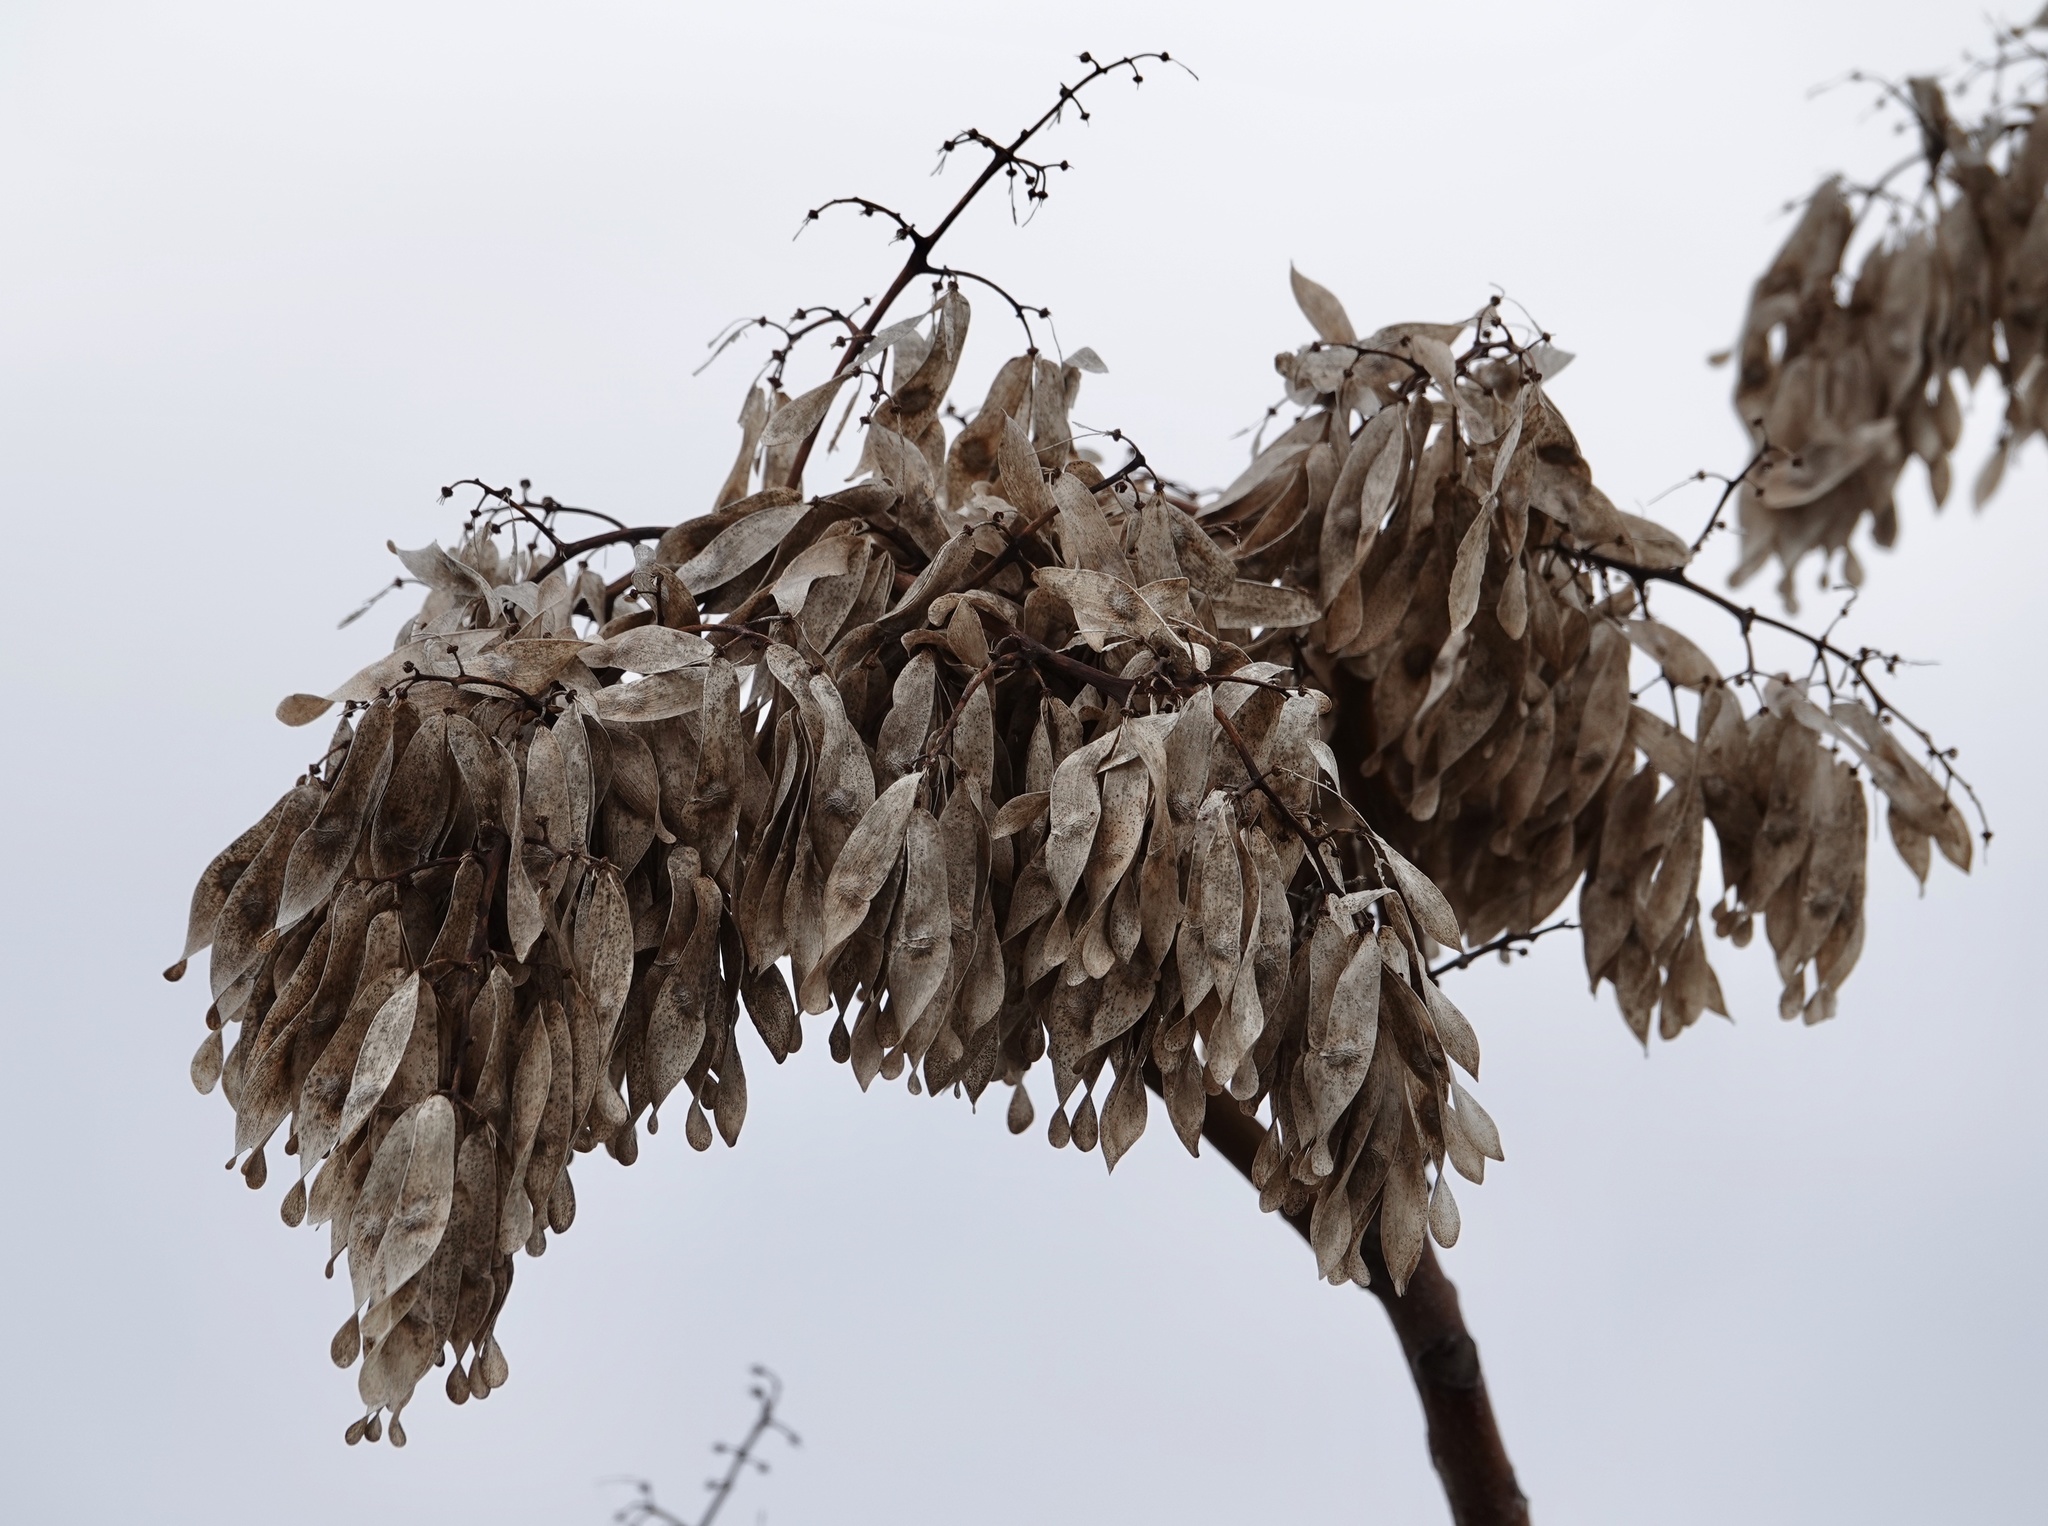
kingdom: Plantae
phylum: Tracheophyta
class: Magnoliopsida
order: Sapindales
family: Simaroubaceae
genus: Ailanthus
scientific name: Ailanthus altissima
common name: Tree-of-heaven
